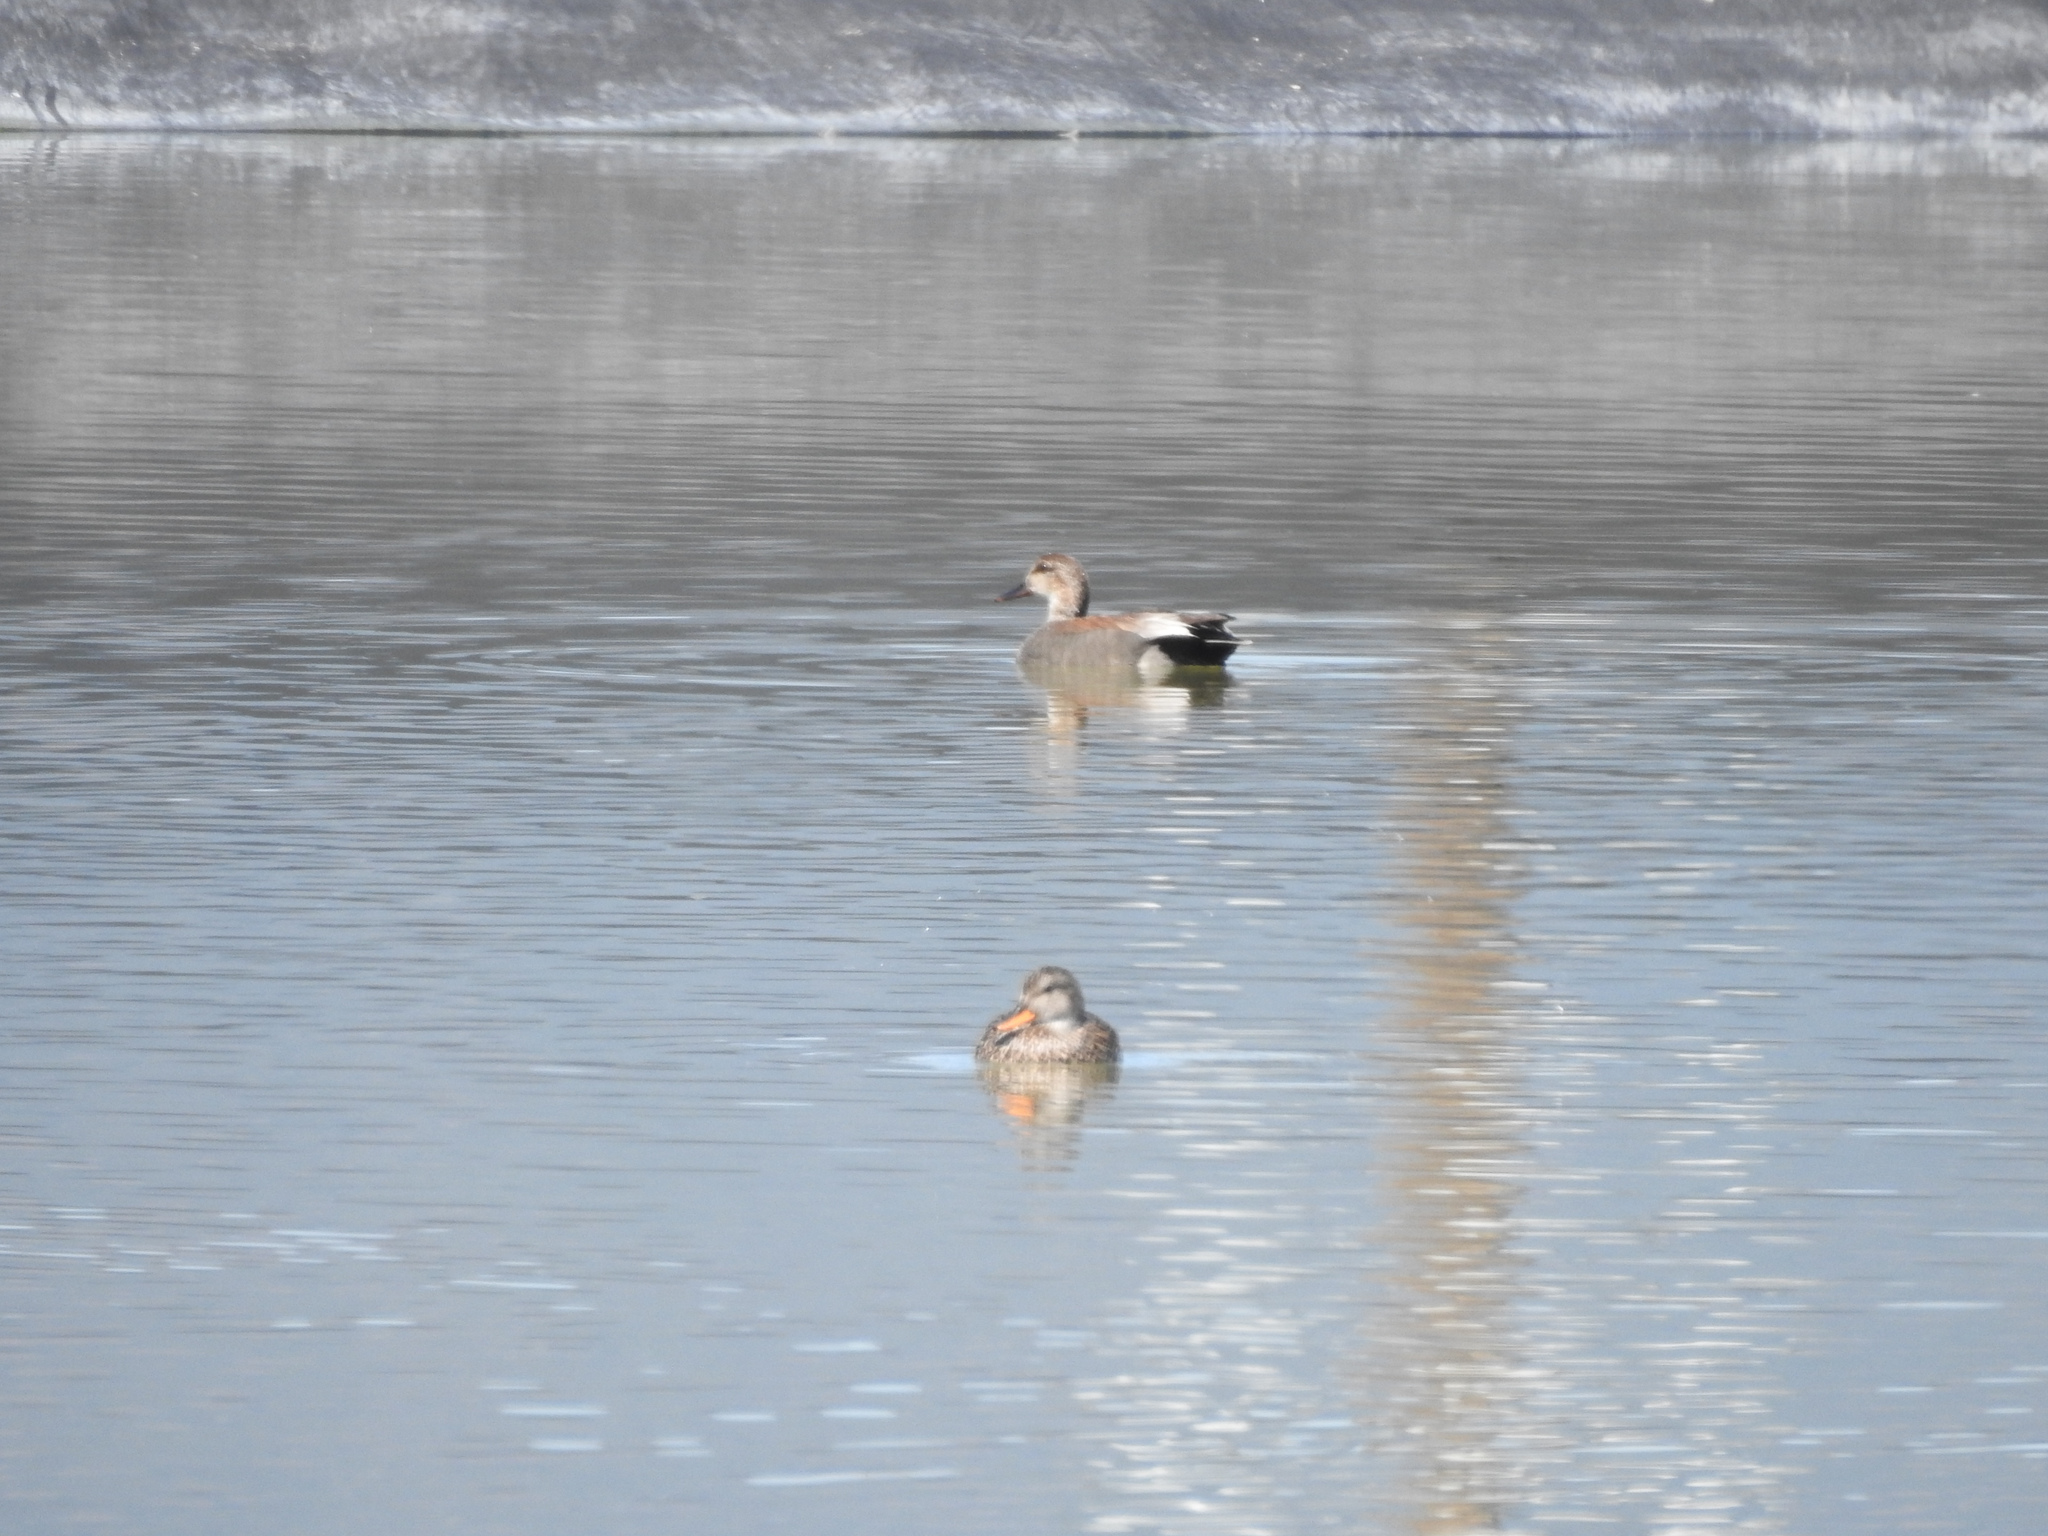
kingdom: Animalia
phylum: Chordata
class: Aves
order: Anseriformes
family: Anatidae
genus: Mareca
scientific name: Mareca strepera
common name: Gadwall
